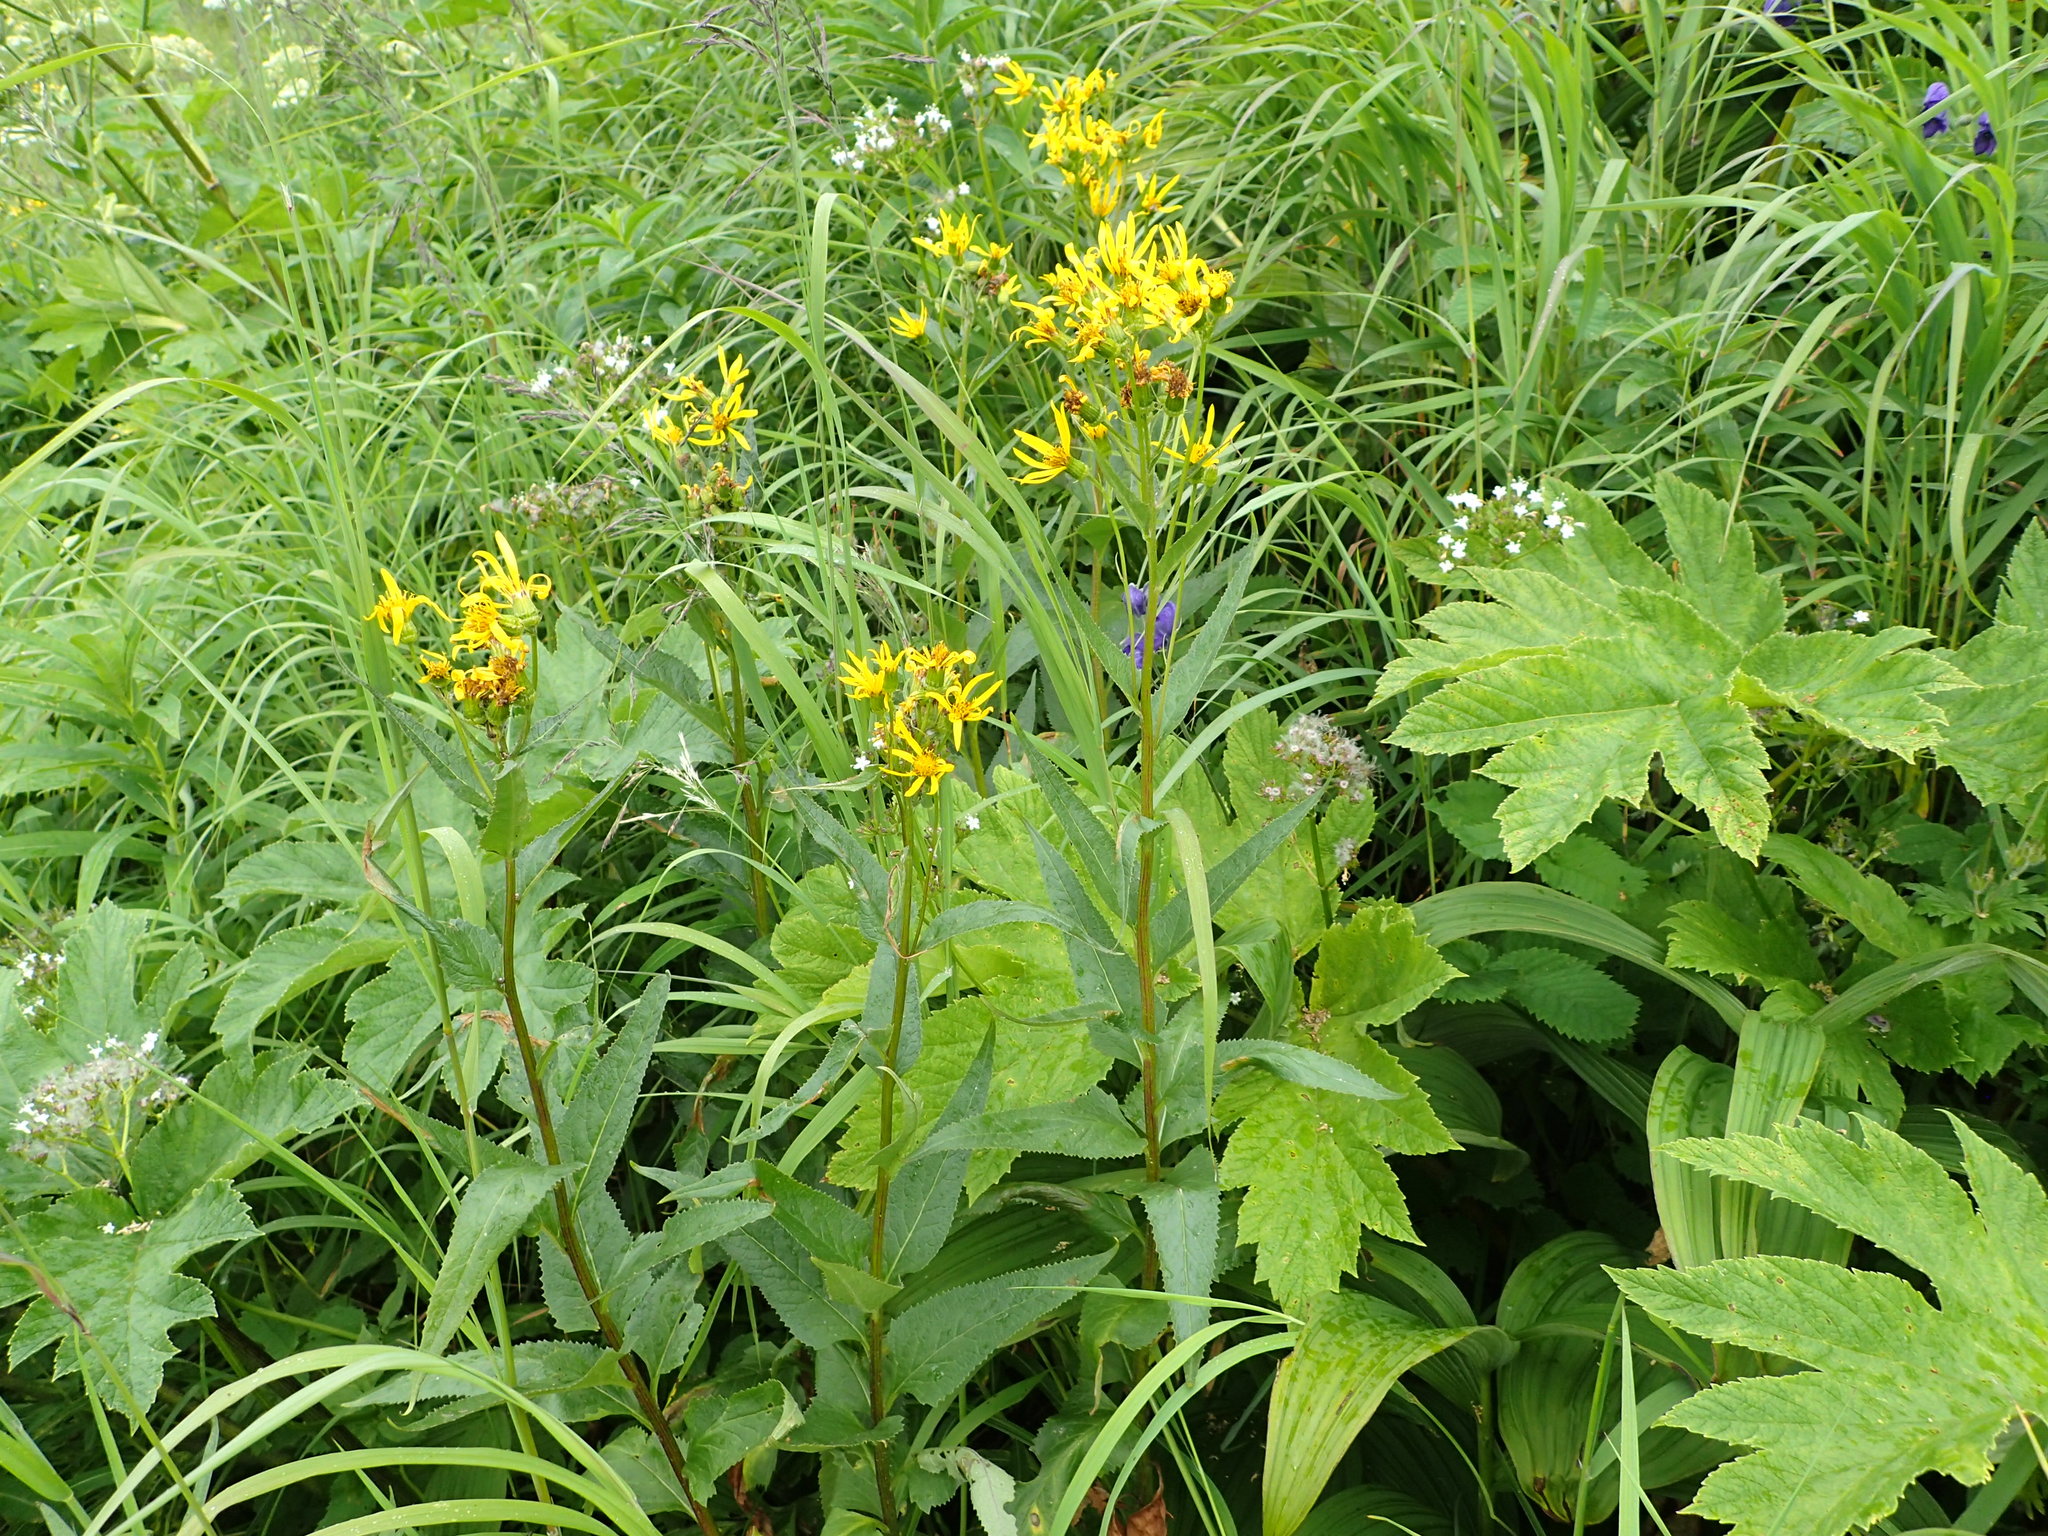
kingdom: Plantae
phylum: Tracheophyta
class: Magnoliopsida
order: Asterales
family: Asteraceae
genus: Senecio
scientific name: Senecio triangularis
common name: Arrowleaf butterweed
